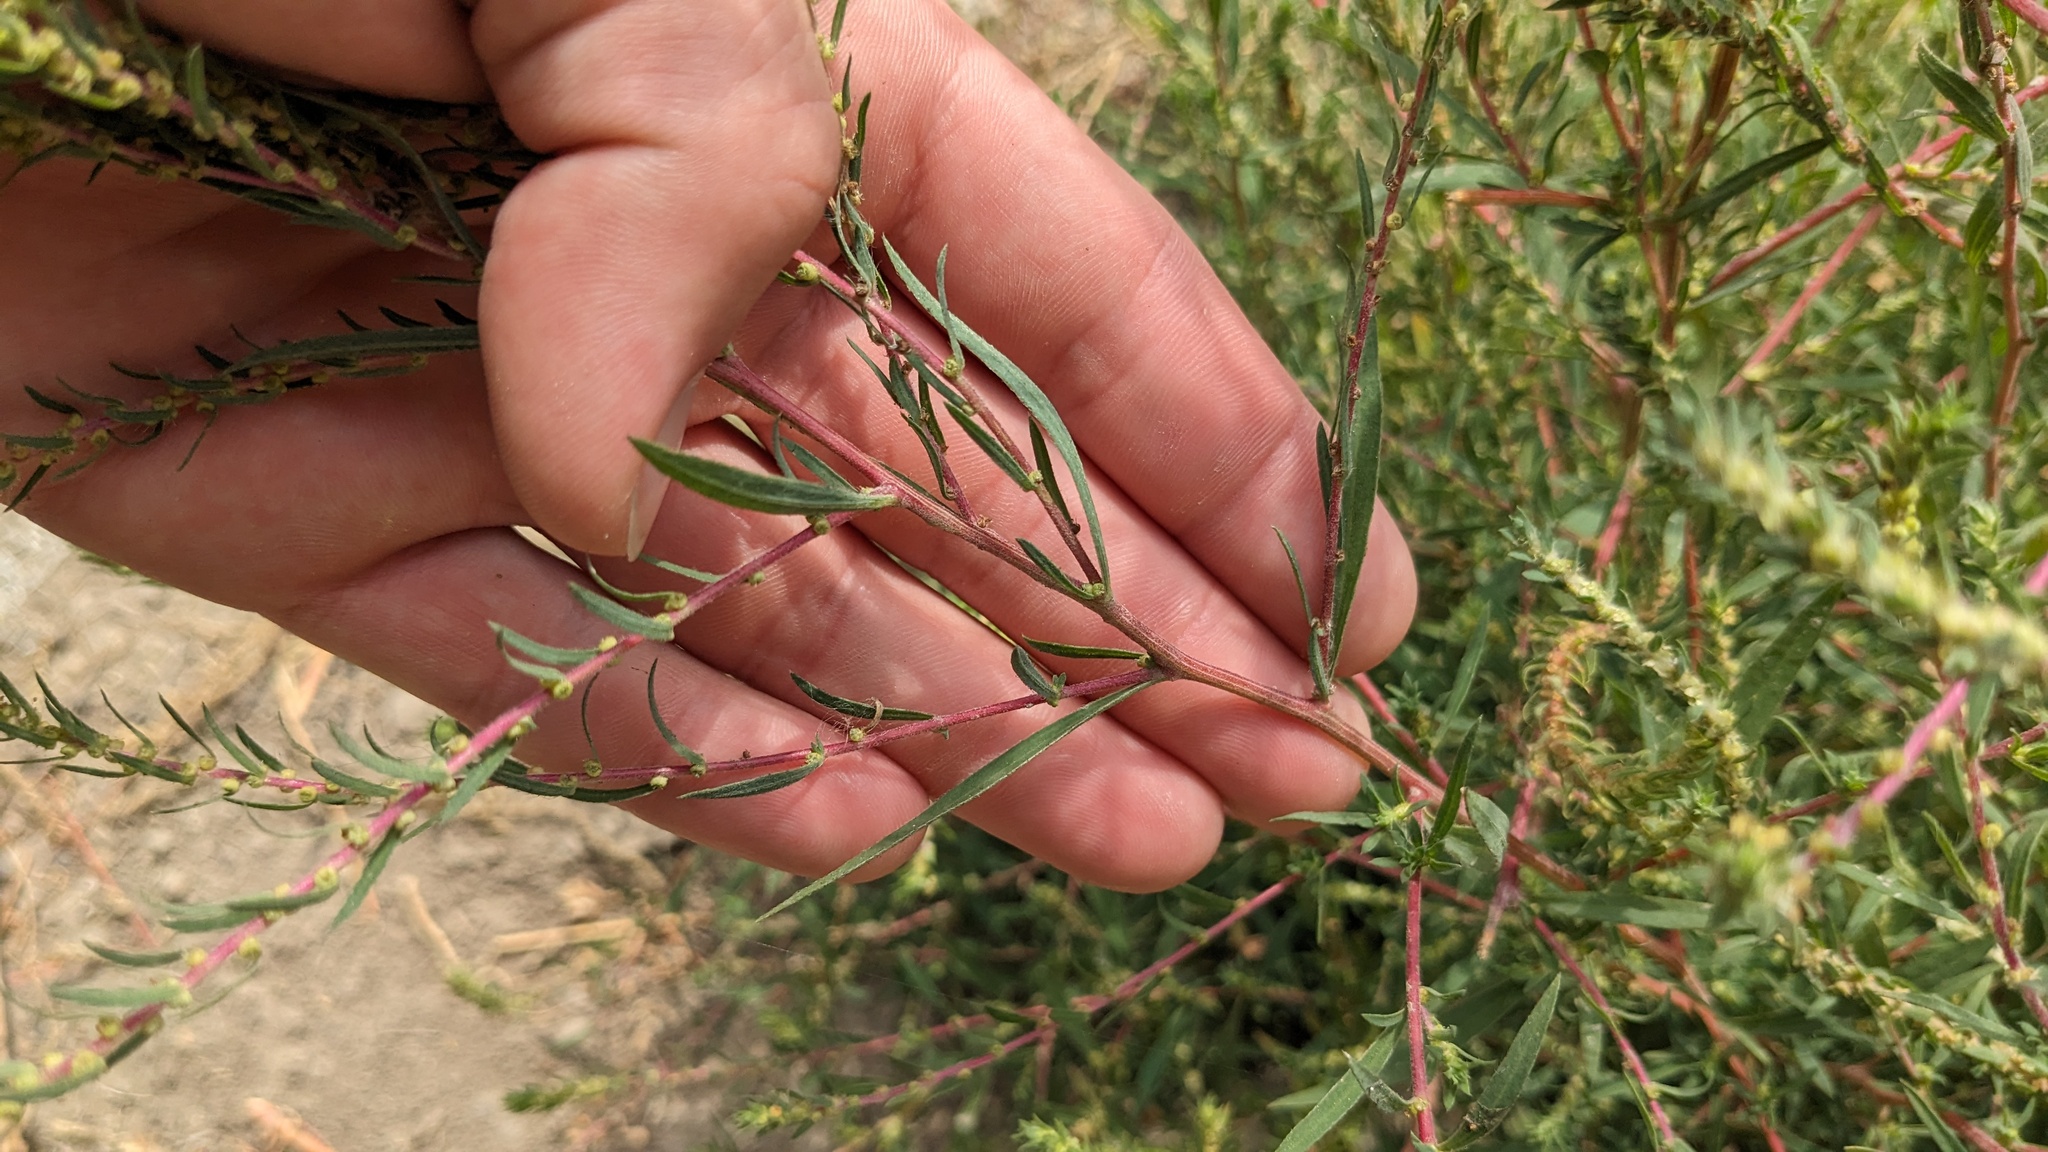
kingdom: Plantae
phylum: Tracheophyta
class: Magnoliopsida
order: Caryophyllales
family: Amaranthaceae
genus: Bassia
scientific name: Bassia scoparia
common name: Belvedere
